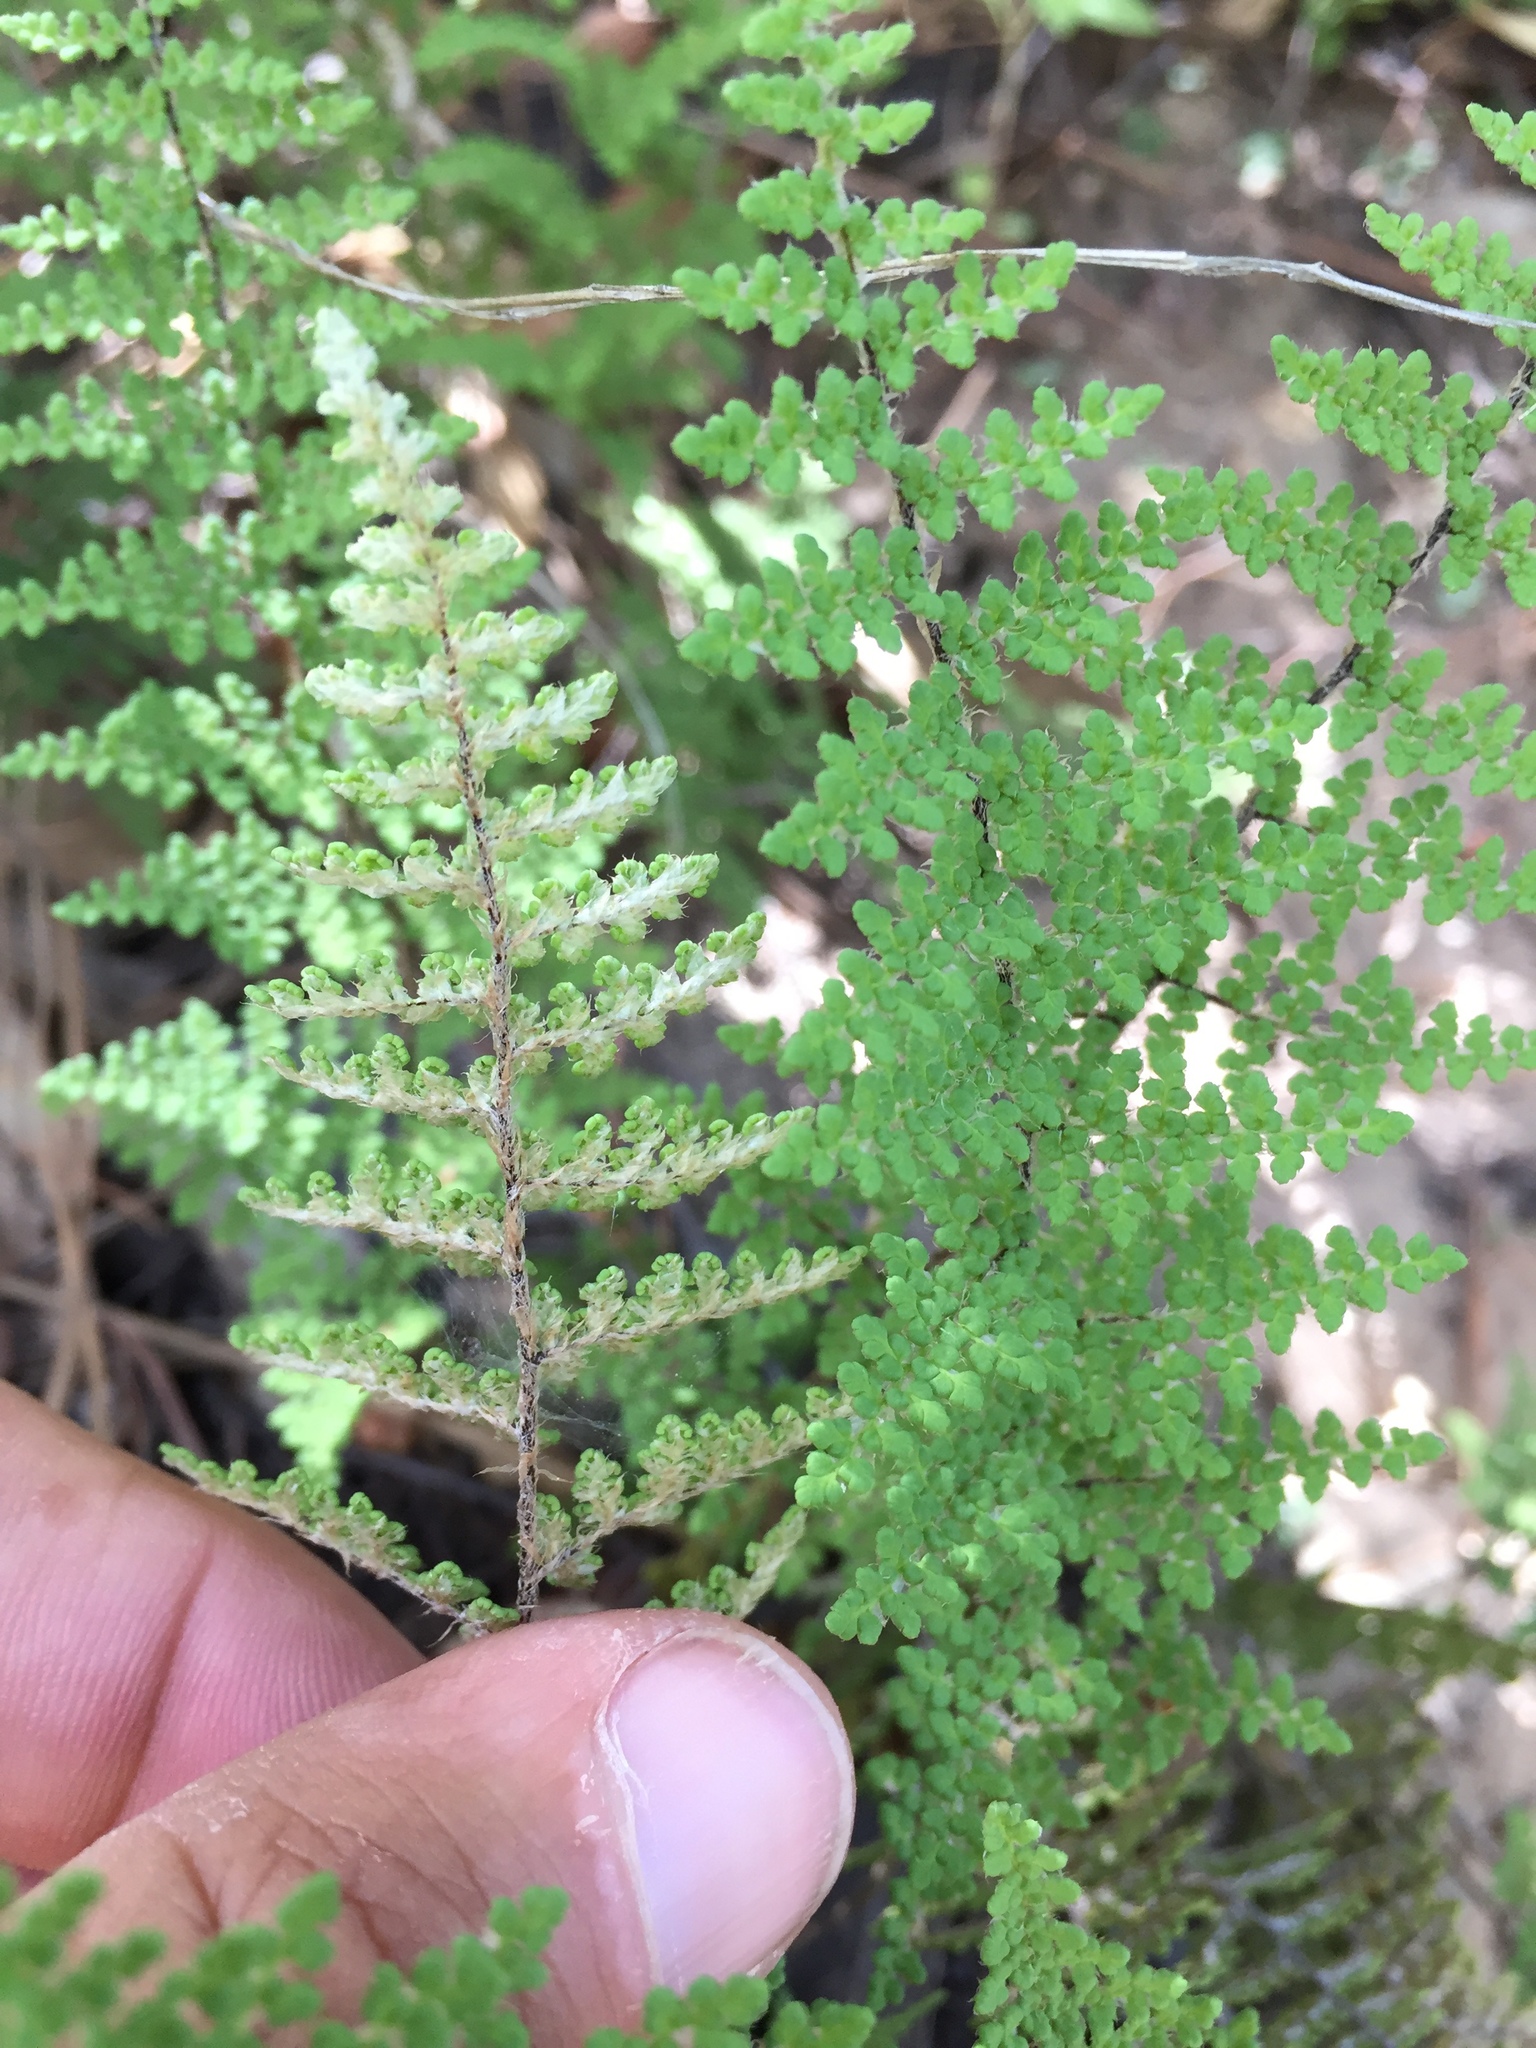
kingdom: Plantae
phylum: Tracheophyta
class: Polypodiopsida
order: Polypodiales
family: Pteridaceae
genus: Myriopteris
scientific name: Myriopteris fendleri
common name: Fendler's lip fern
